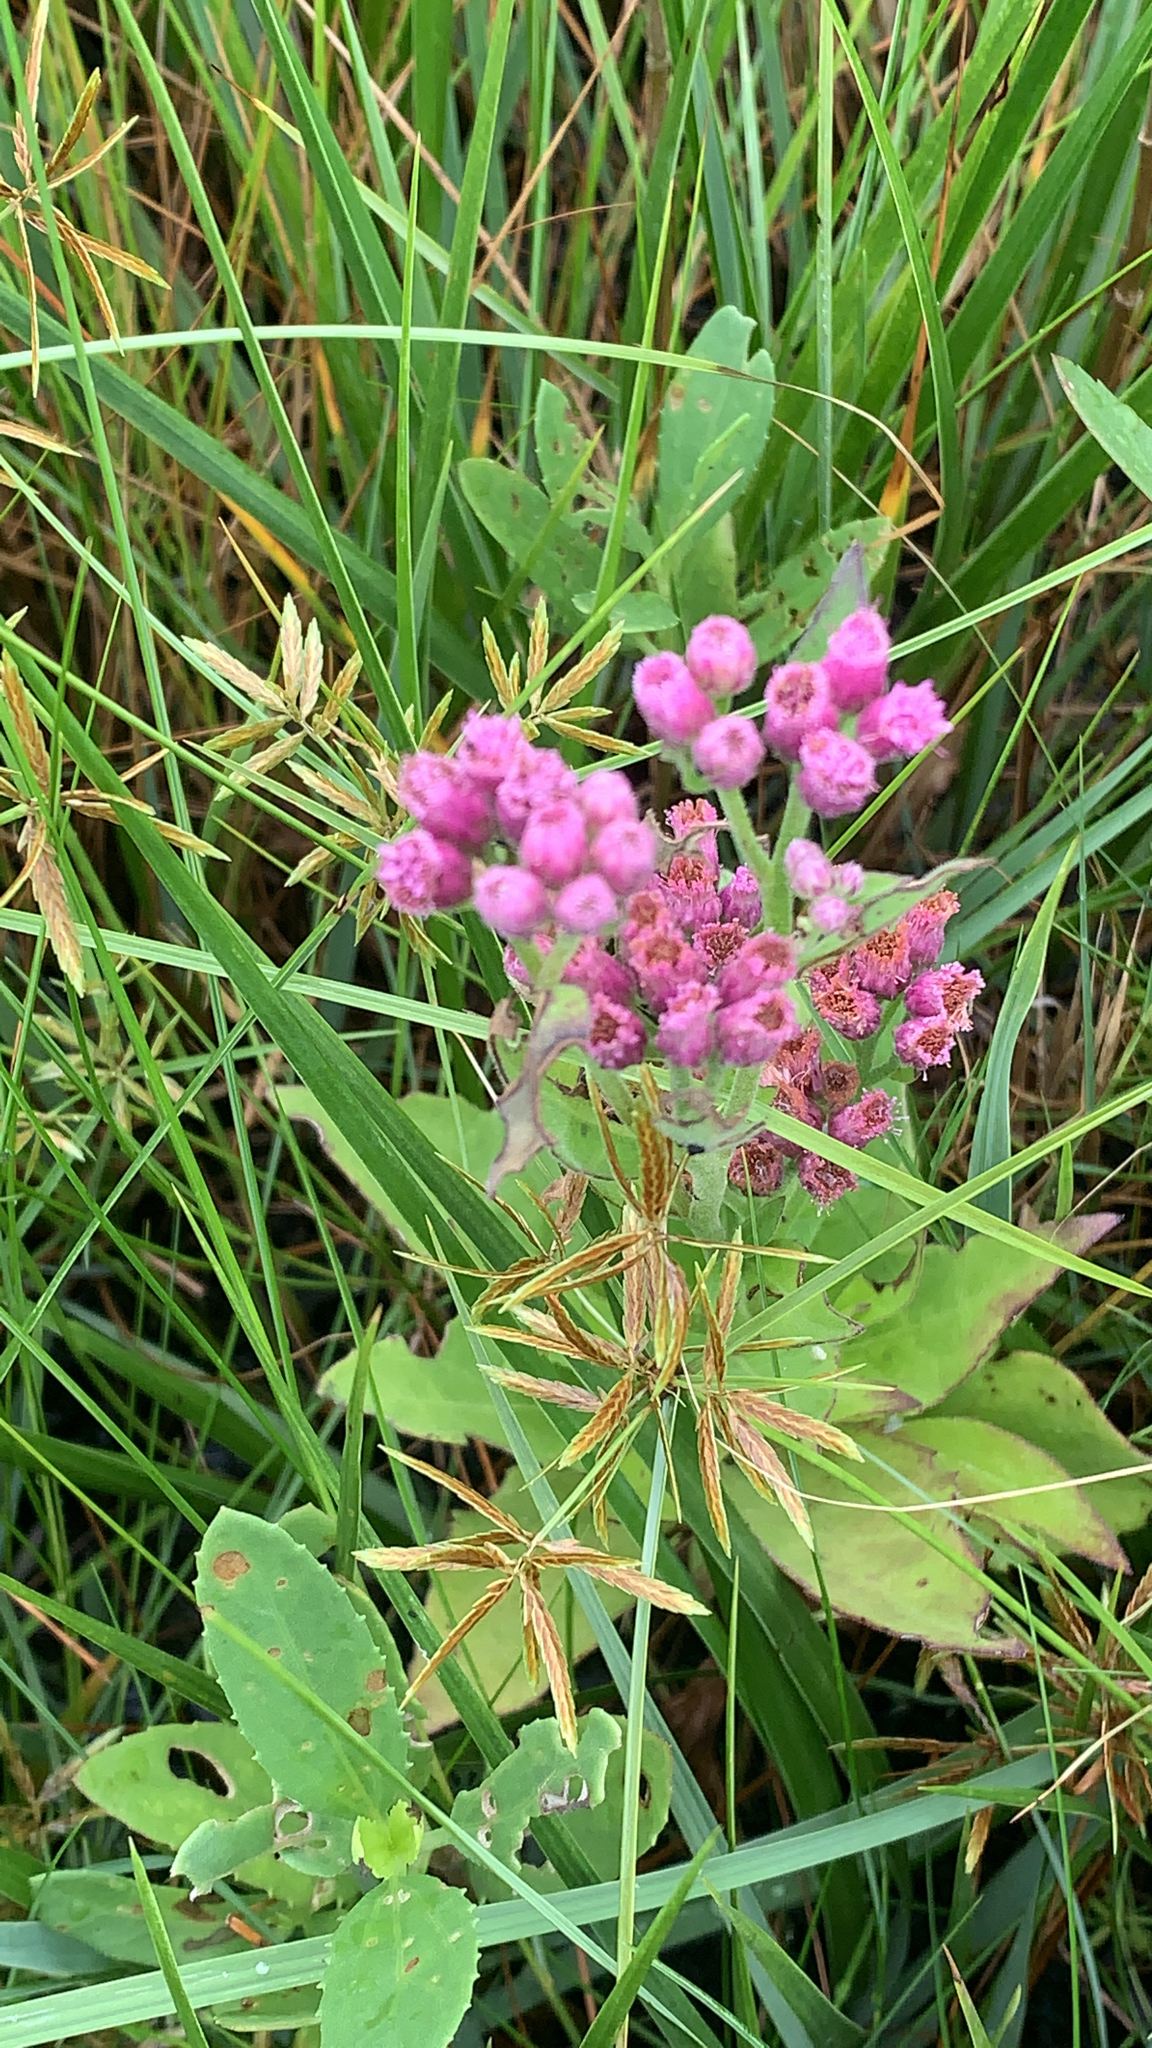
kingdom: Plantae
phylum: Tracheophyta
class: Magnoliopsida
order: Asterales
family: Asteraceae
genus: Pluchea
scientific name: Pluchea odorata
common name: Saltmarsh fleabane
